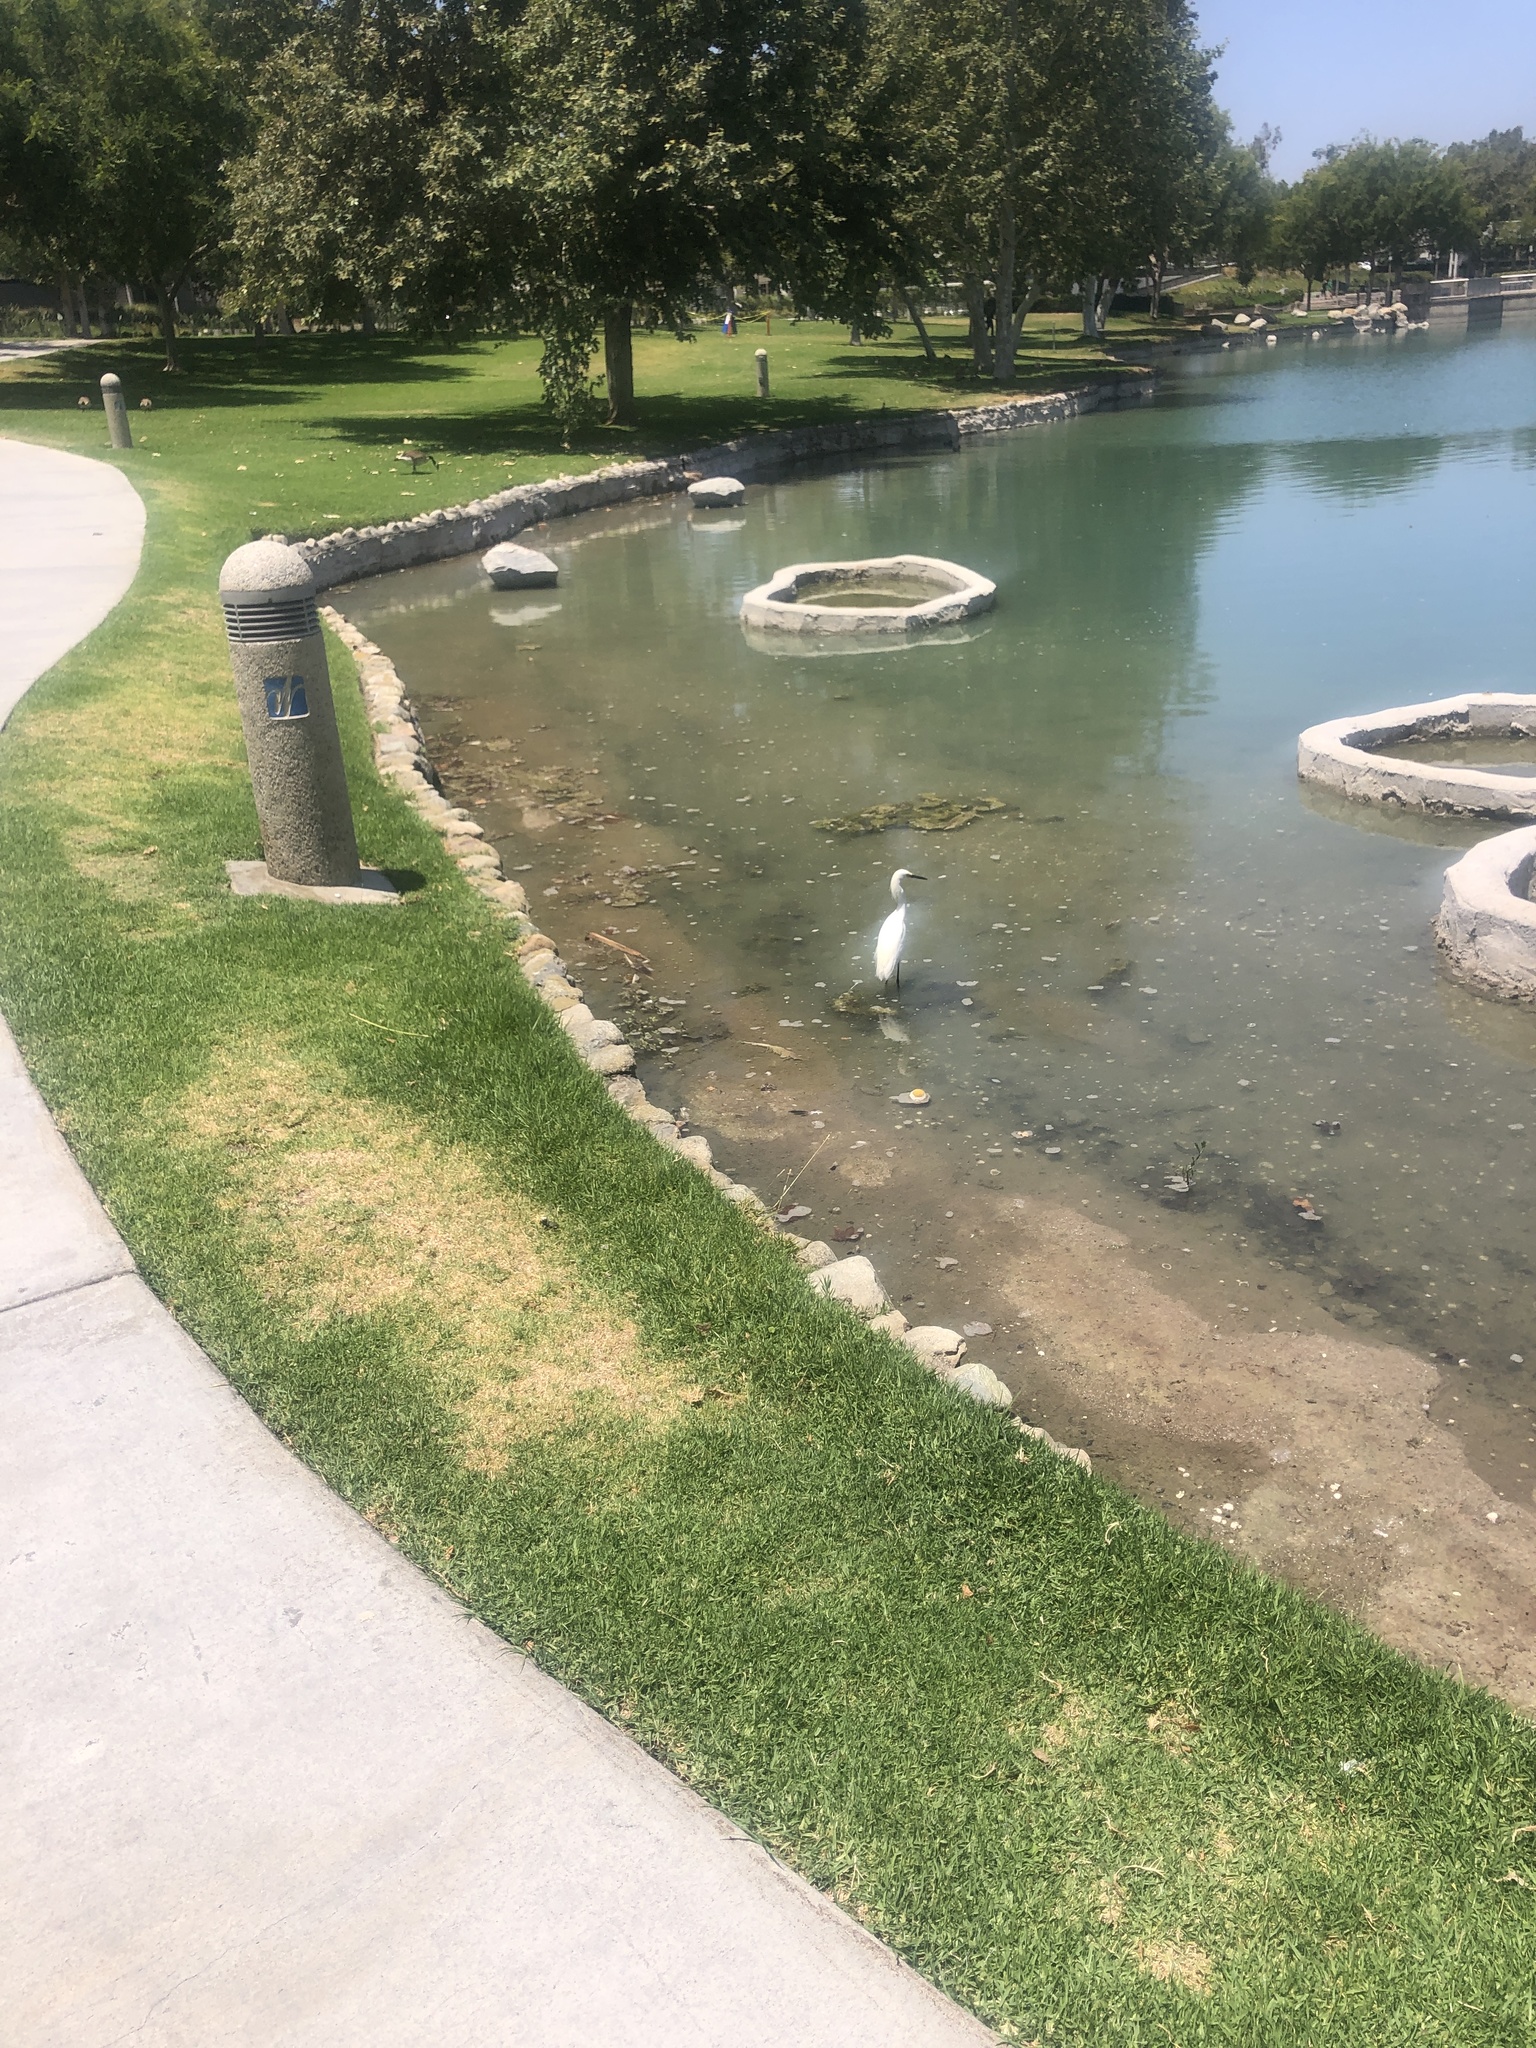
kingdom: Animalia
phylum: Chordata
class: Aves
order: Pelecaniformes
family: Ardeidae
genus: Egretta
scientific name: Egretta thula
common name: Snowy egret
